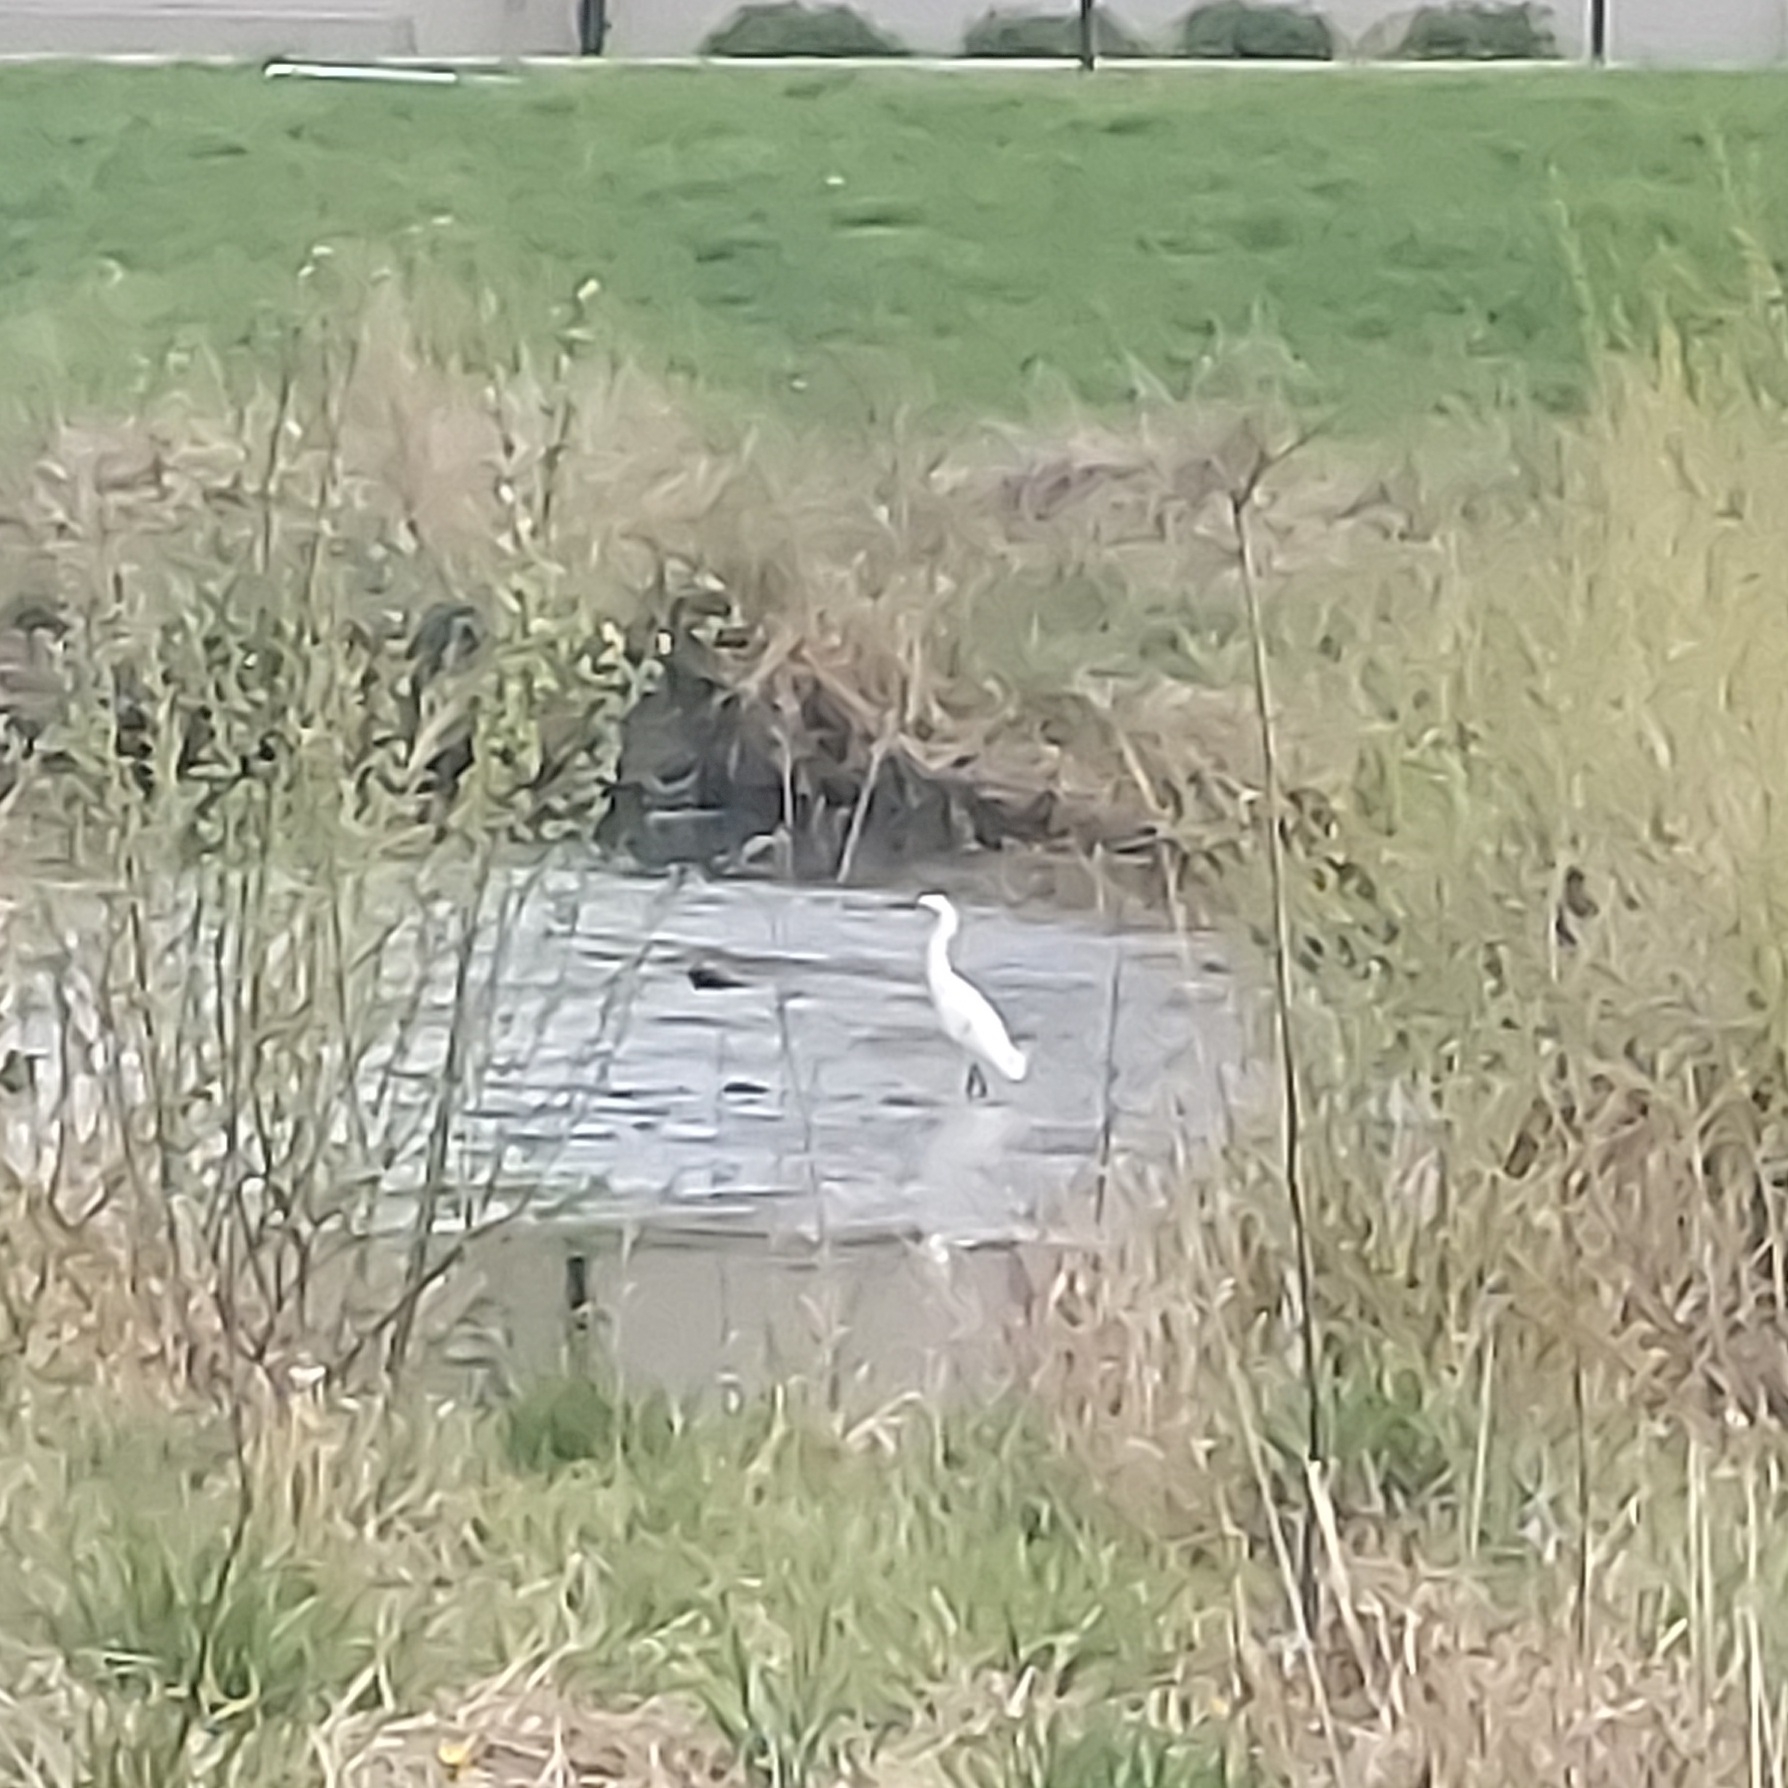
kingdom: Animalia
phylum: Chordata
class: Aves
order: Pelecaniformes
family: Ardeidae
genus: Egretta
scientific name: Egretta thula
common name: Snowy egret
